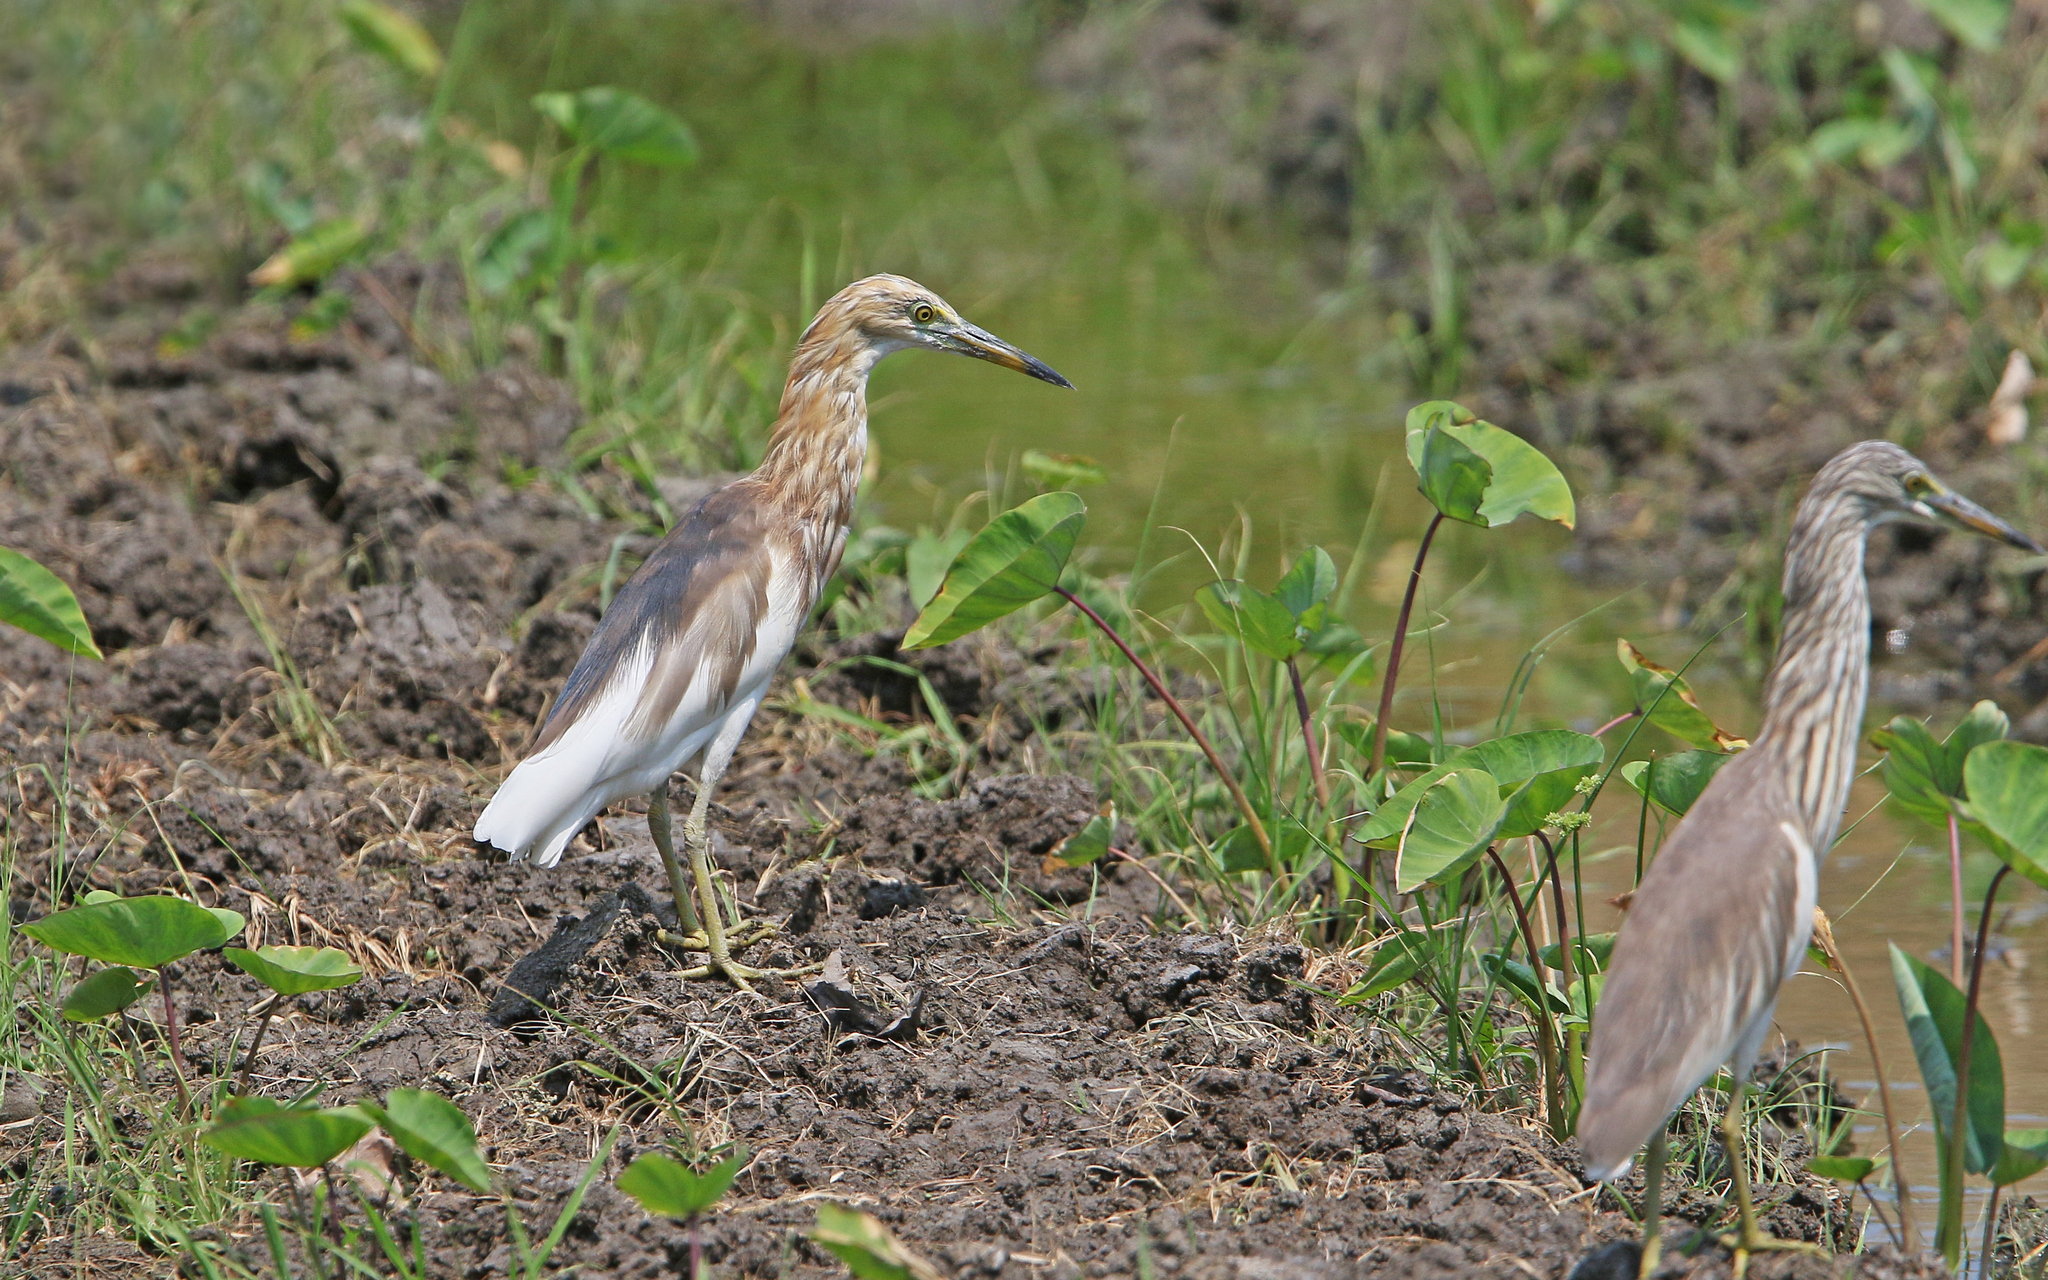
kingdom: Animalia
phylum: Chordata
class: Aves
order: Pelecaniformes
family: Ardeidae
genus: Ardeola
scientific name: Ardeola speciosa
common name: Javan pond heron
